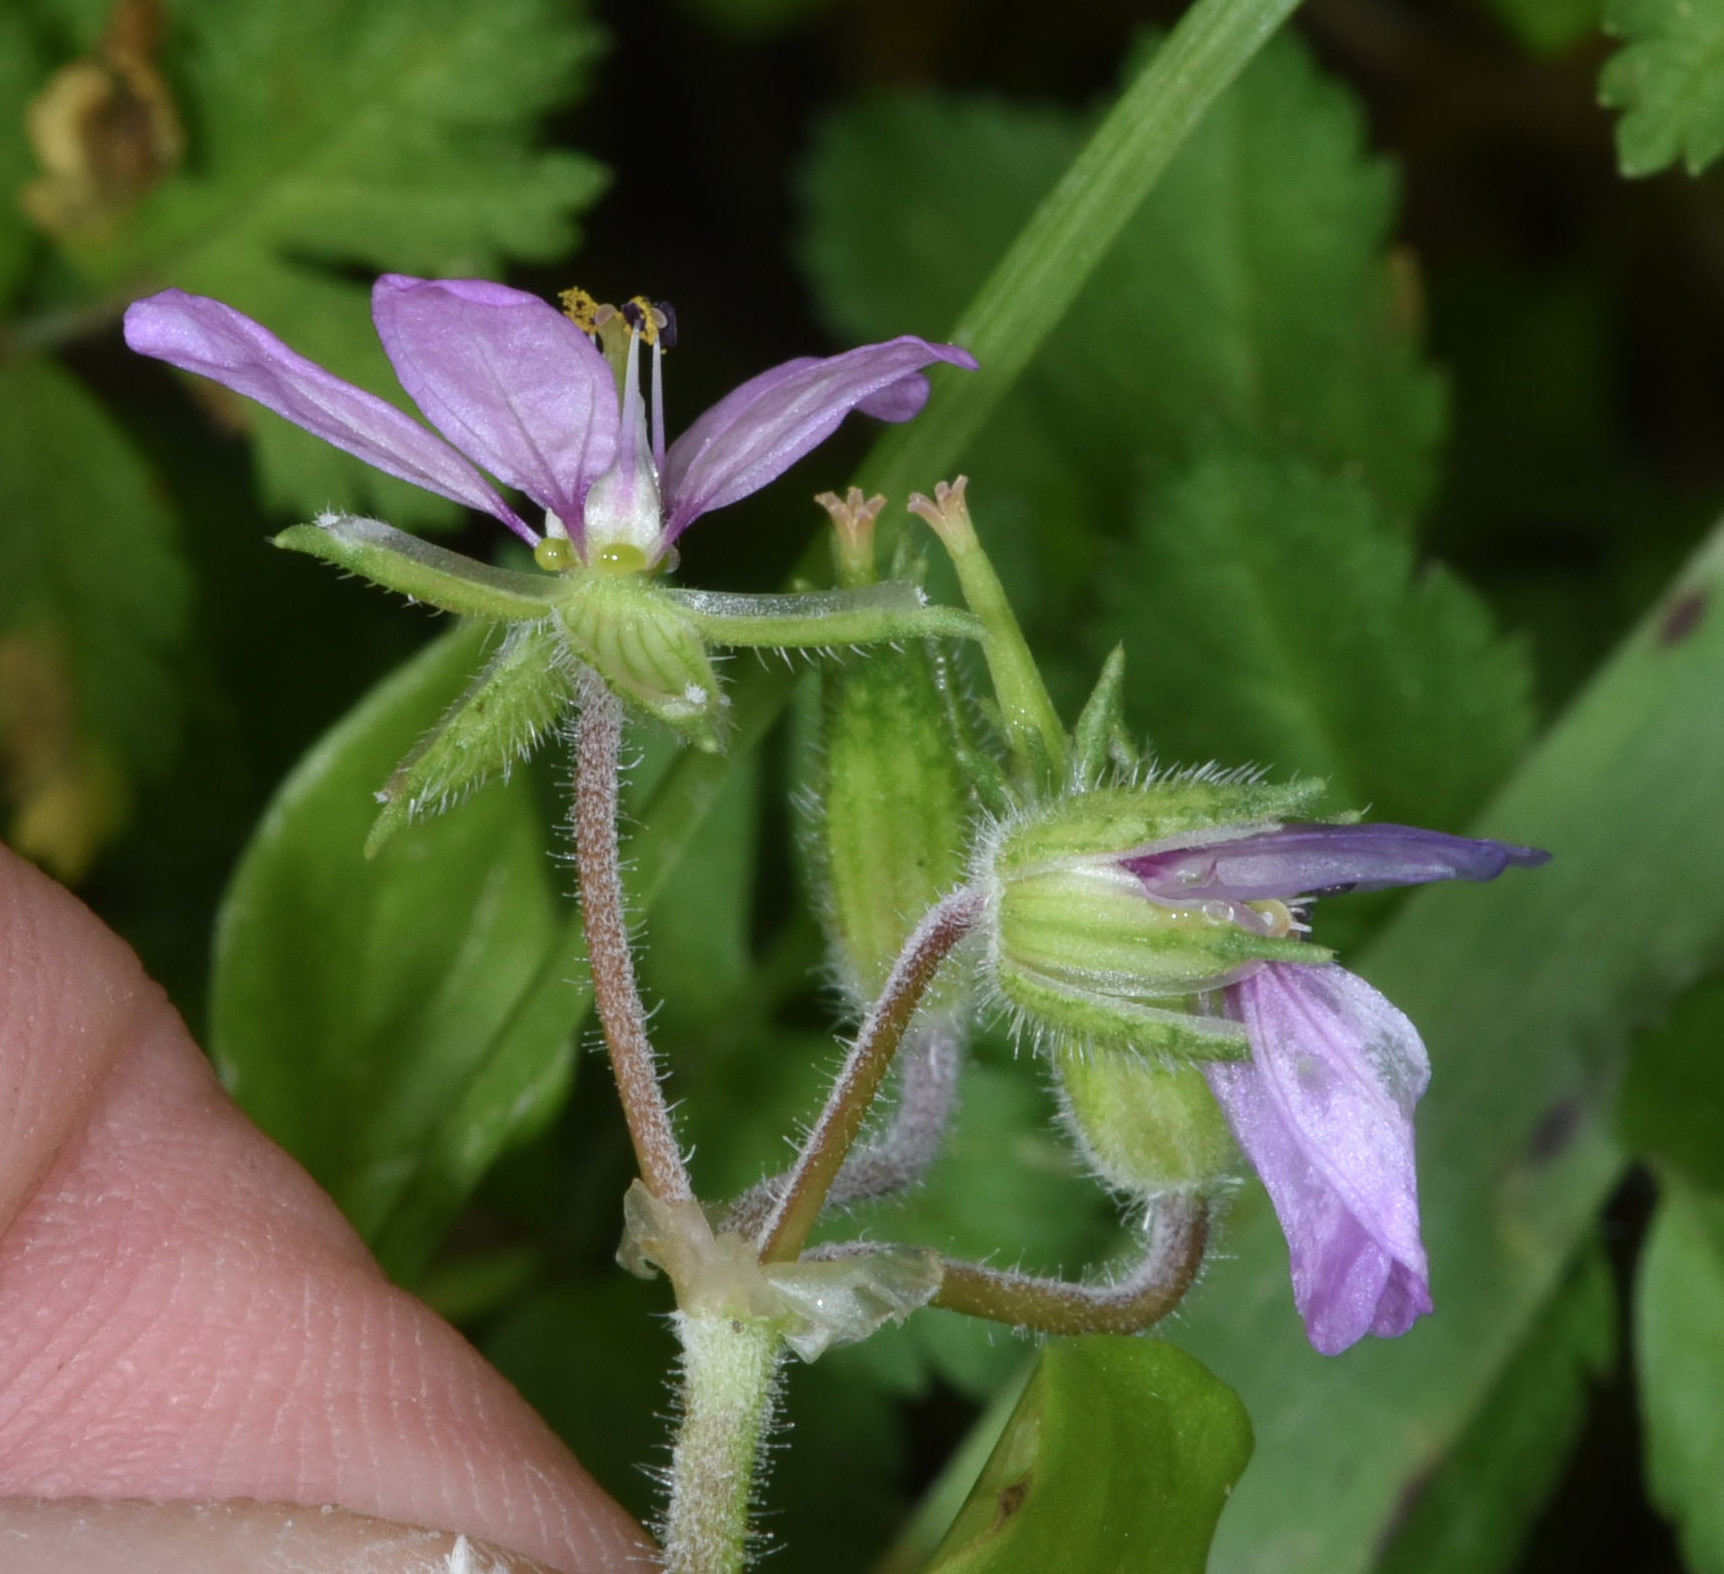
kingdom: Plantae
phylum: Tracheophyta
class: Magnoliopsida
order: Geraniales
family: Geraniaceae
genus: Erodium
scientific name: Erodium moschatum
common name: Musk stork's-bill
